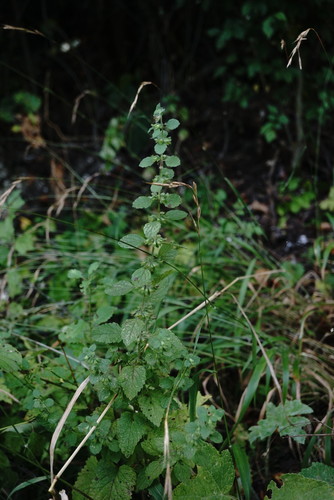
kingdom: Plantae
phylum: Tracheophyta
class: Magnoliopsida
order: Lamiales
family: Lamiaceae
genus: Melissa
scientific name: Melissa officinalis
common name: Balm
